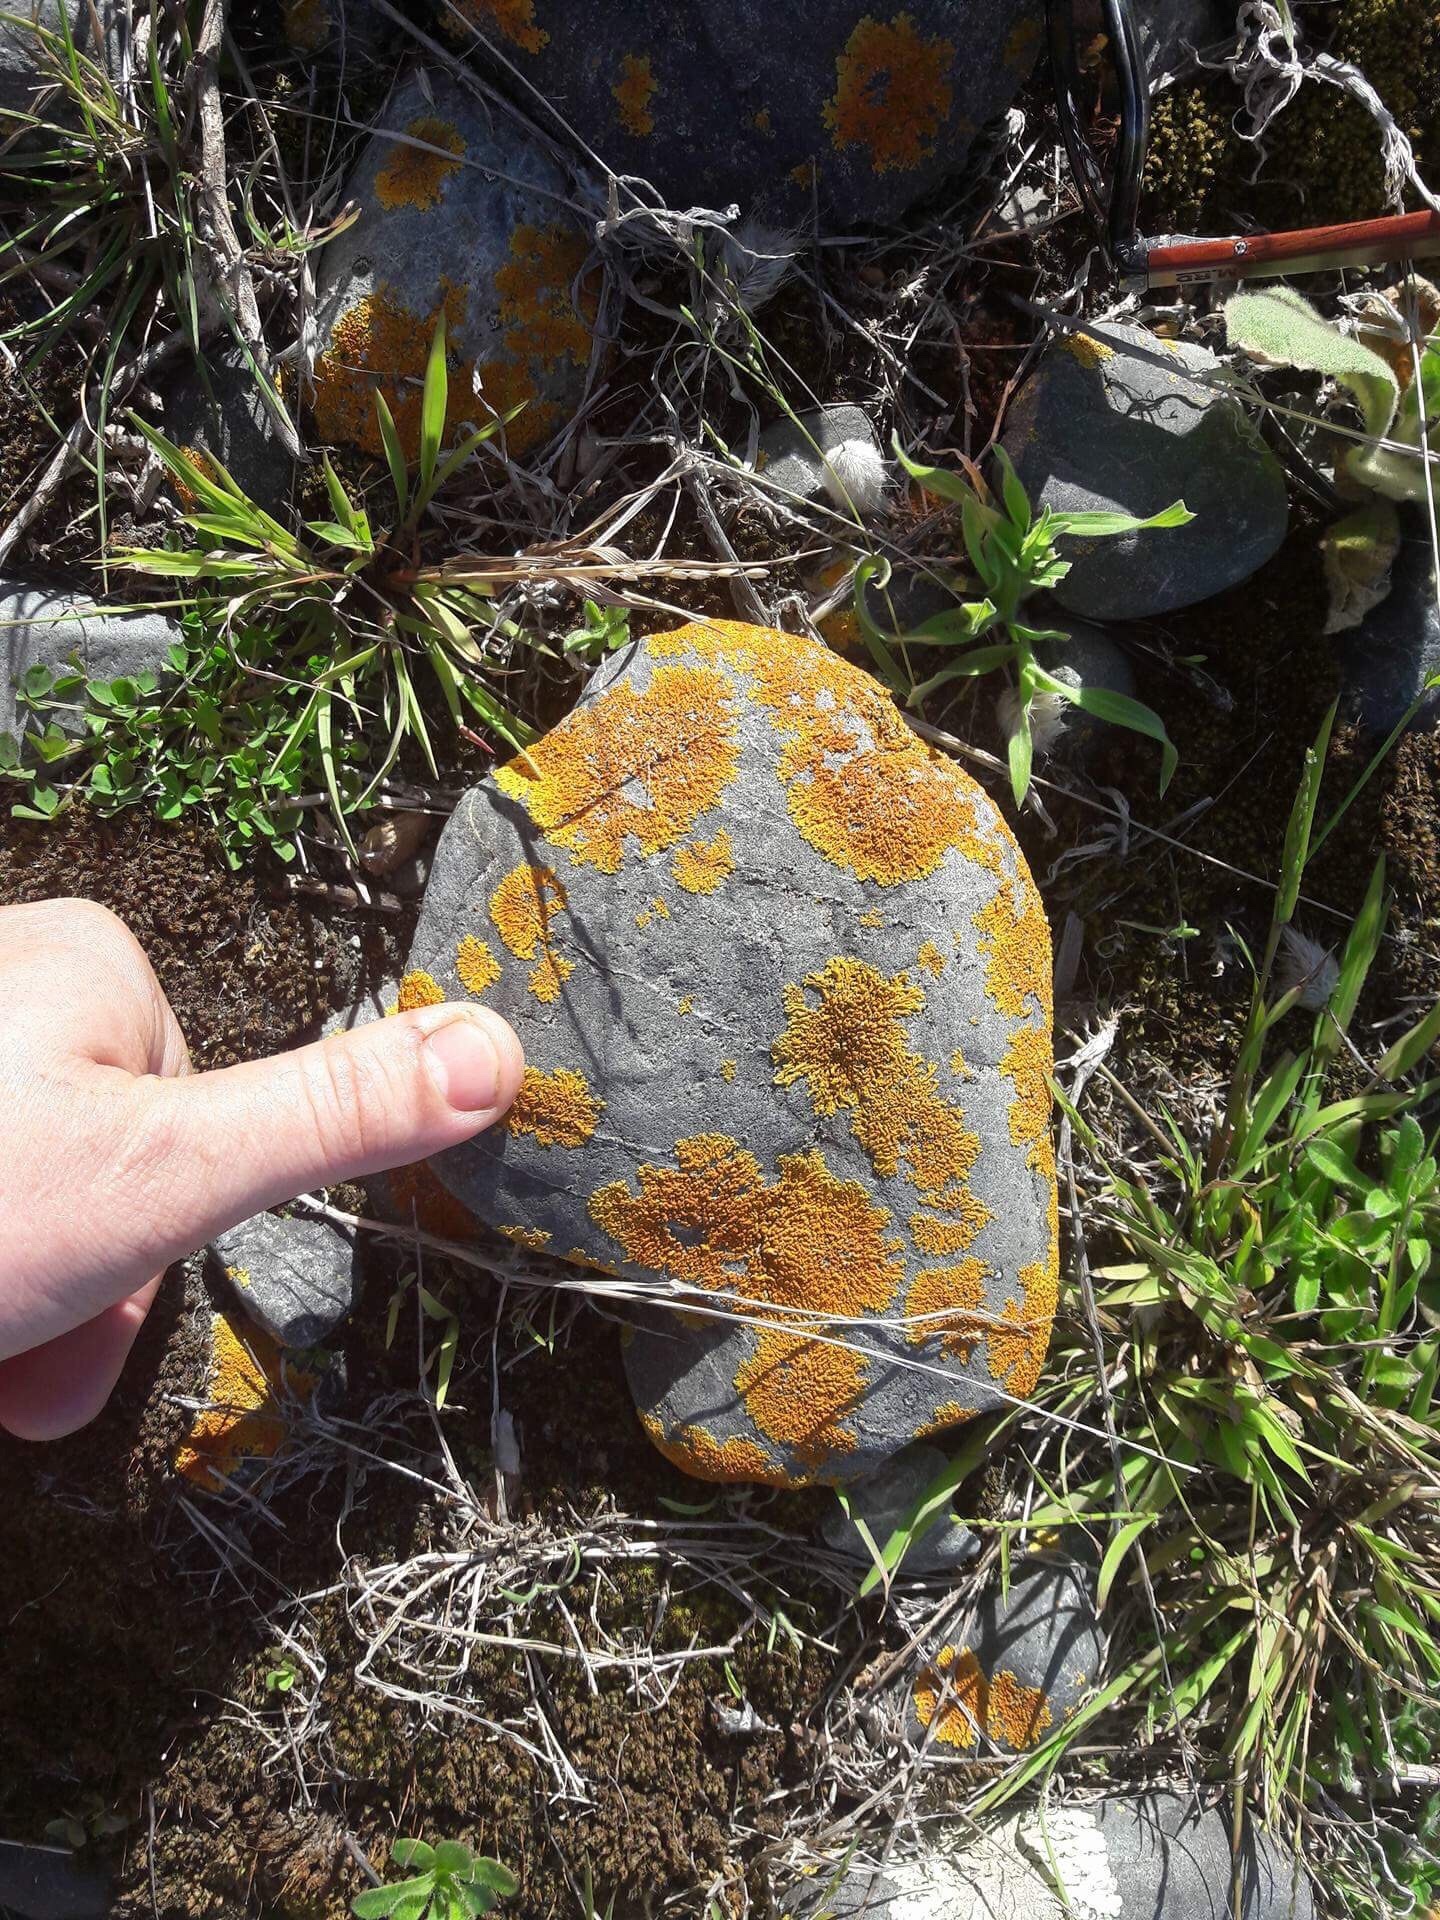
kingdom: Fungi
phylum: Ascomycota
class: Lecanoromycetes
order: Teloschistales
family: Teloschistaceae
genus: Dufourea
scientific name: Dufourea ligulata
